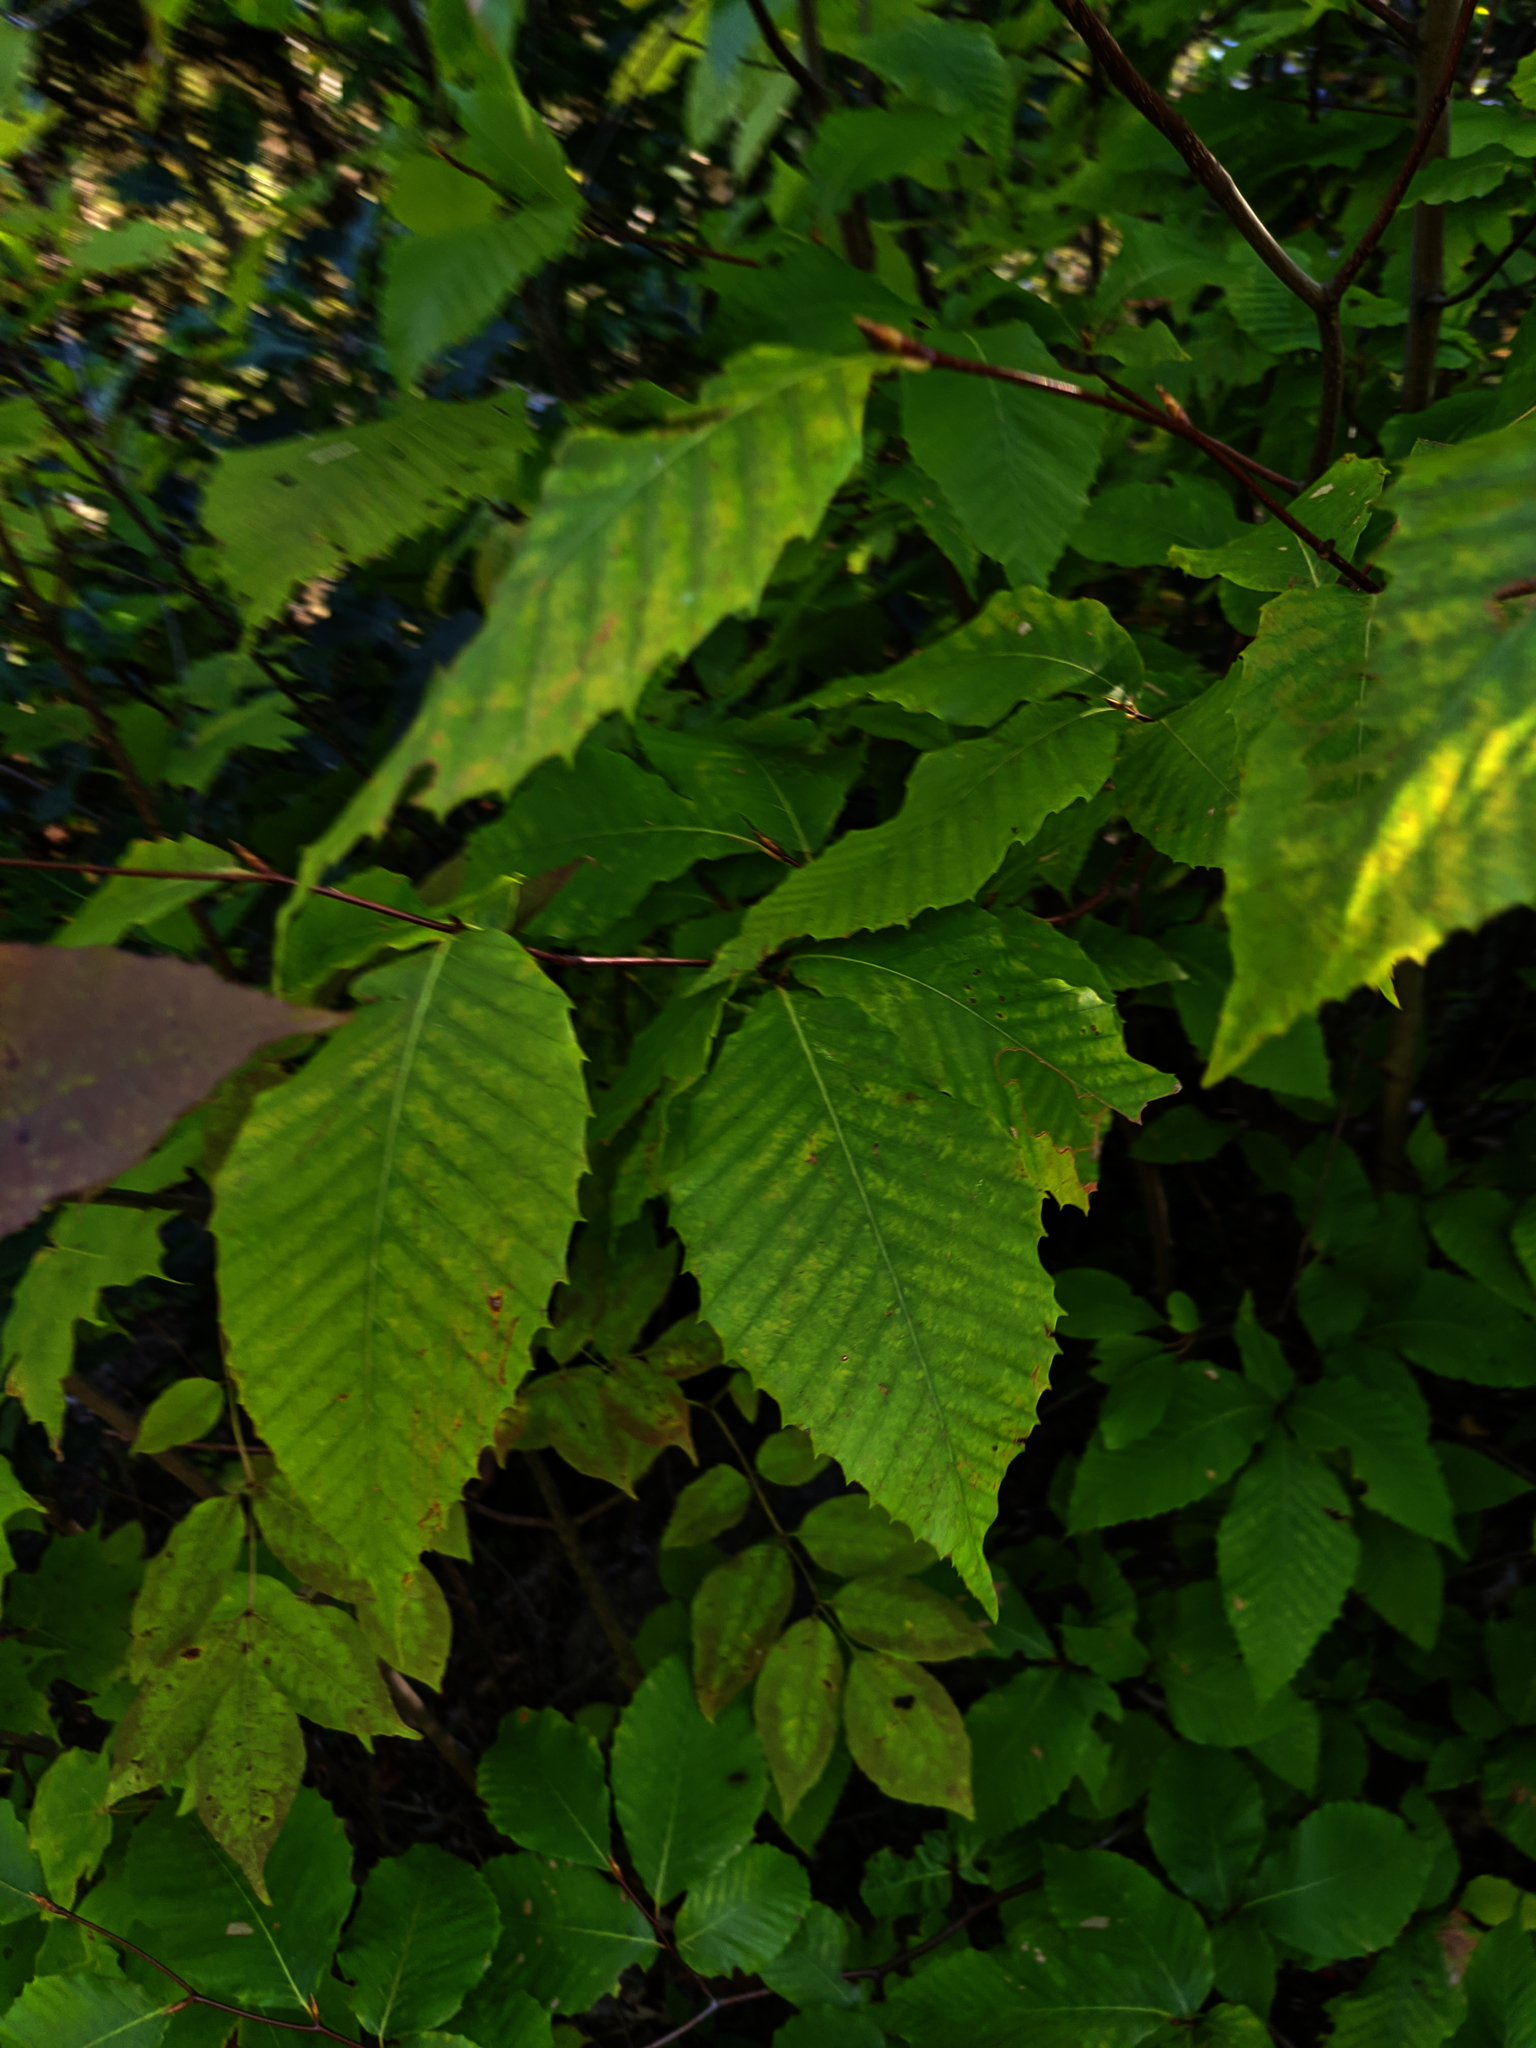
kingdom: Plantae
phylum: Tracheophyta
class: Magnoliopsida
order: Fagales
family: Fagaceae
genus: Fagus
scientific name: Fagus grandifolia
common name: American beech
